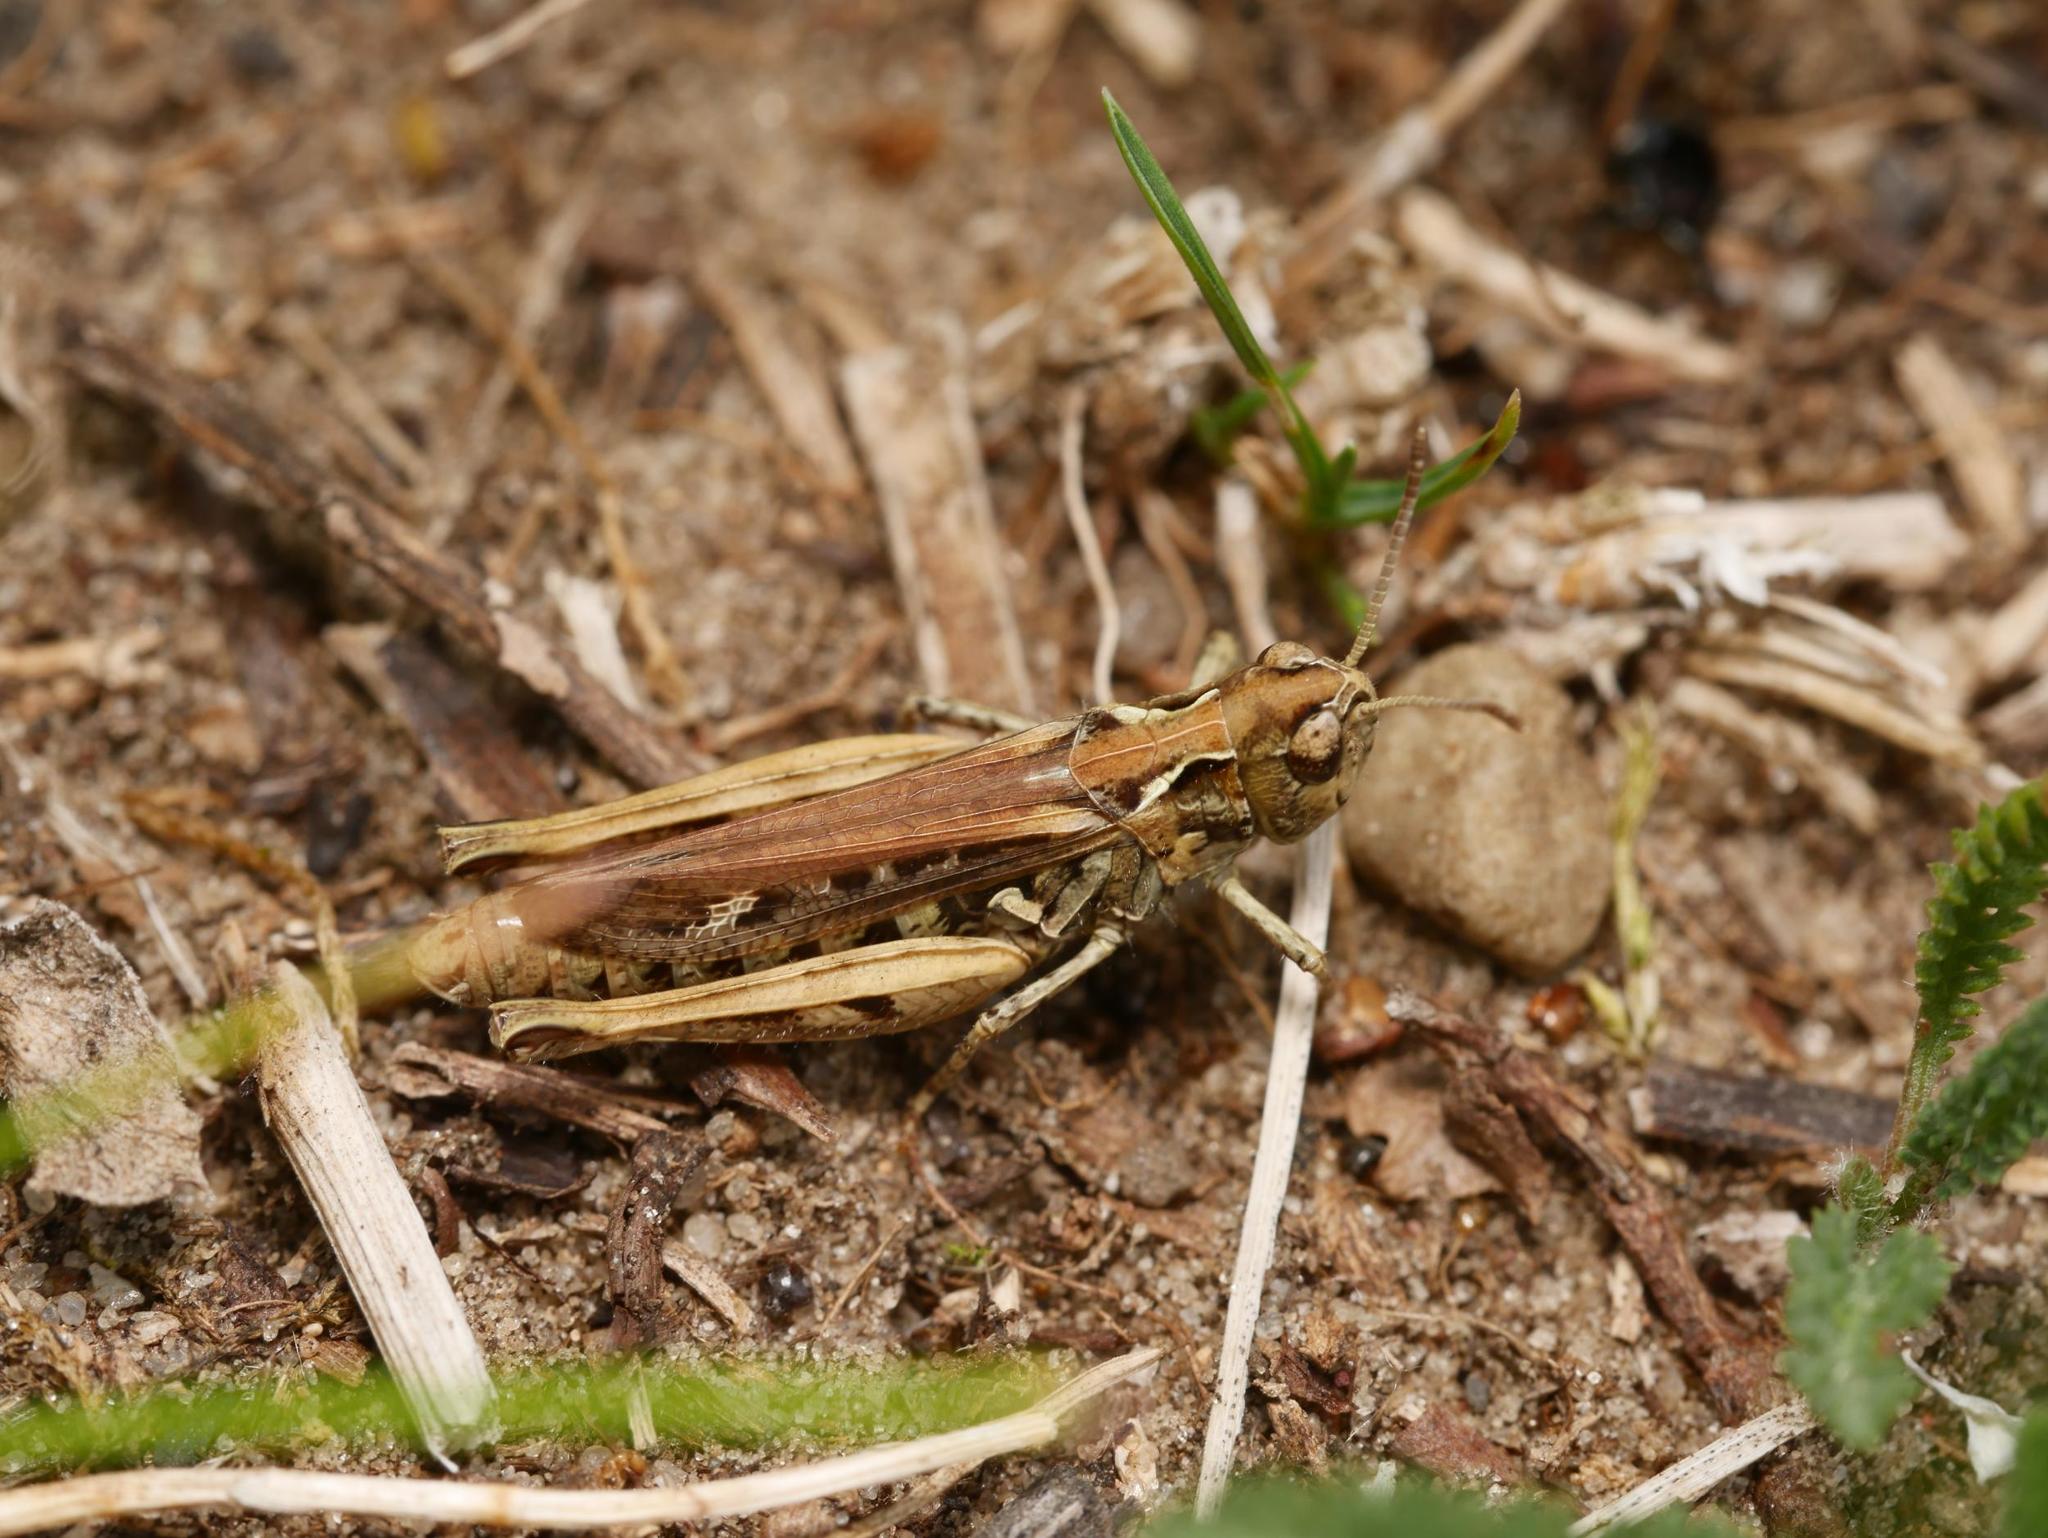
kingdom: Animalia
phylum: Arthropoda
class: Insecta
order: Orthoptera
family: Acrididae
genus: Myrmeleotettix
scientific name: Myrmeleotettix maculatus
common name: Mottled grasshopper
